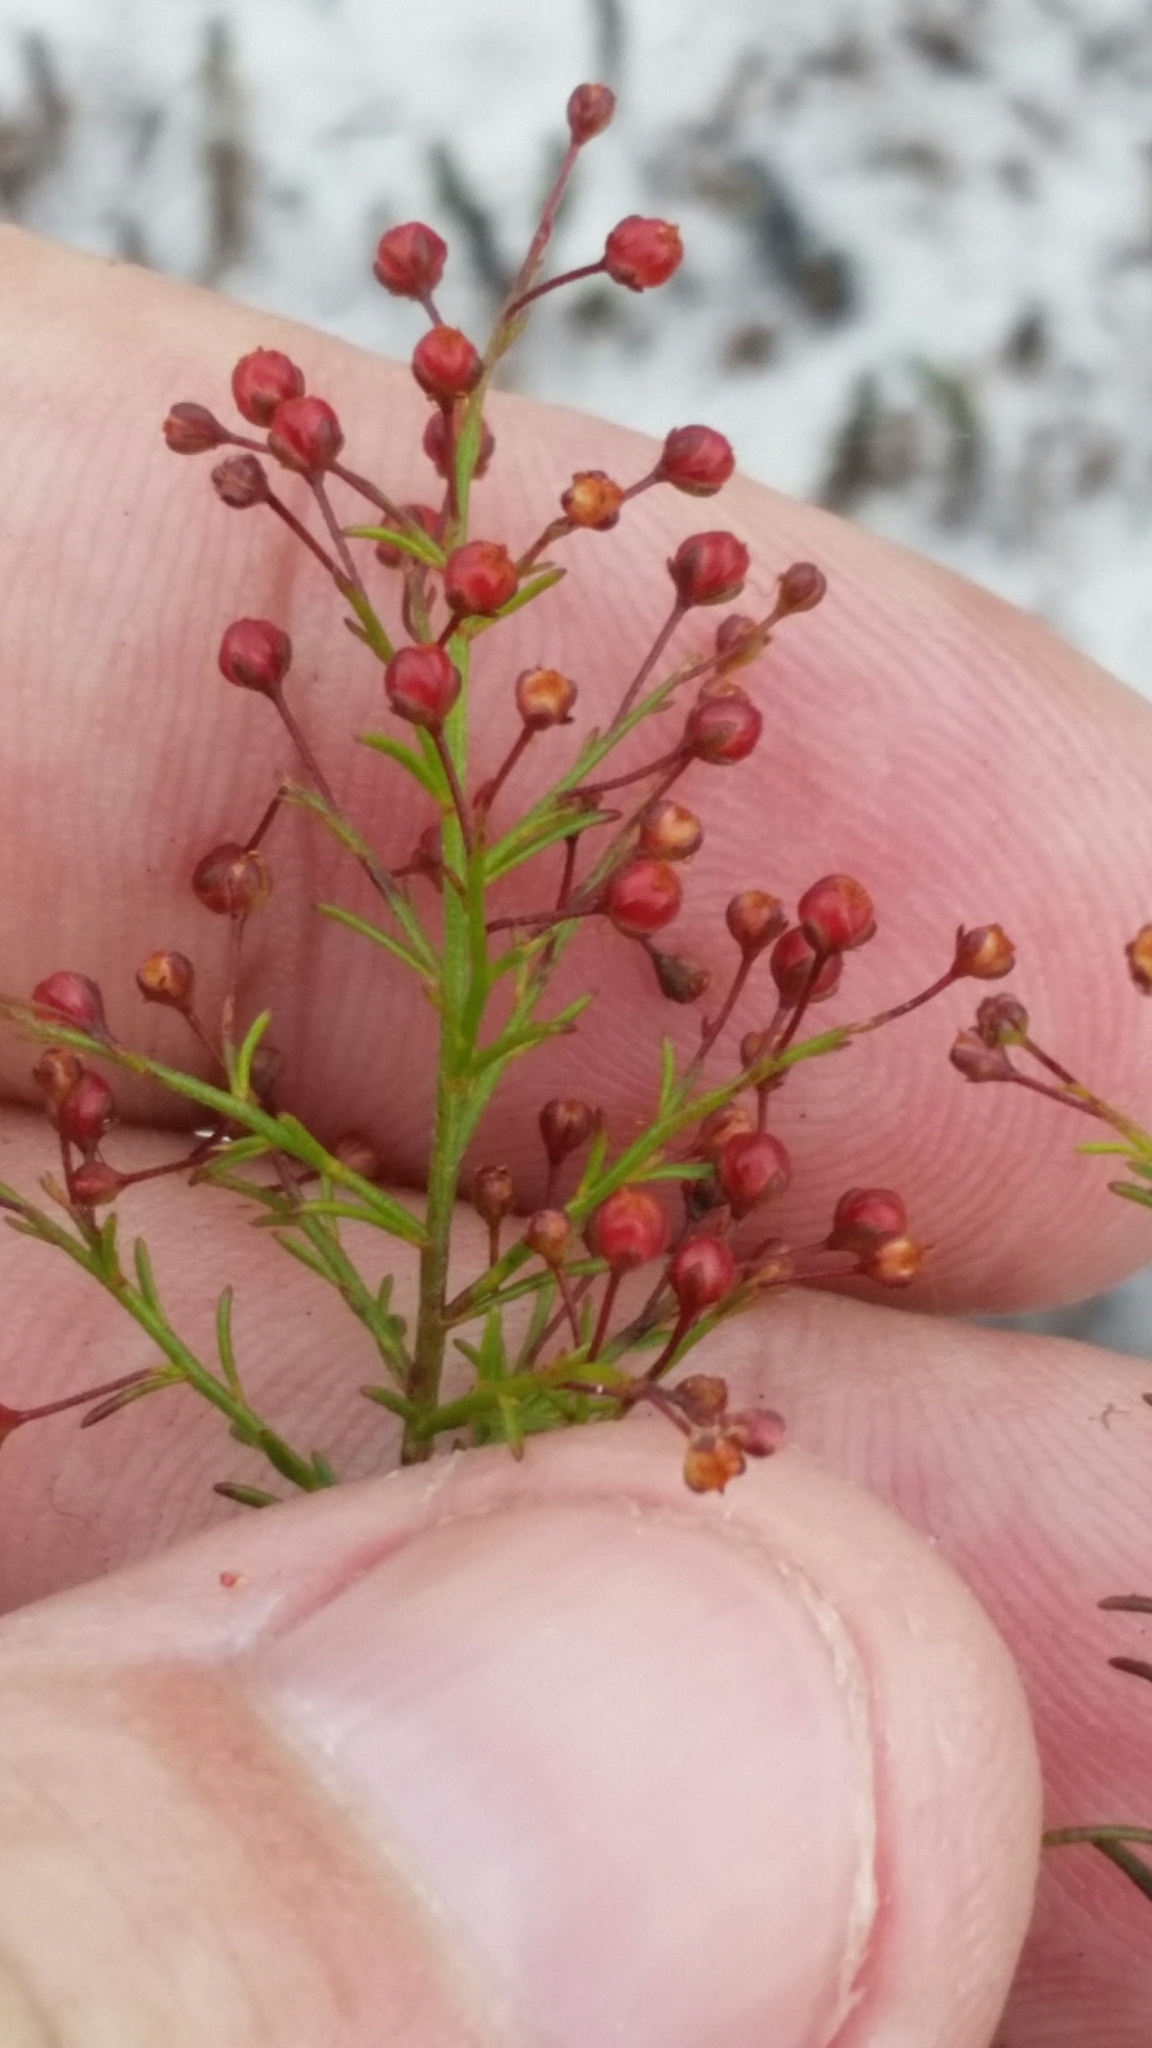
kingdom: Plantae
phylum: Tracheophyta
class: Magnoliopsida
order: Malvales
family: Cistaceae
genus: Lechea
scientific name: Lechea deckertii
